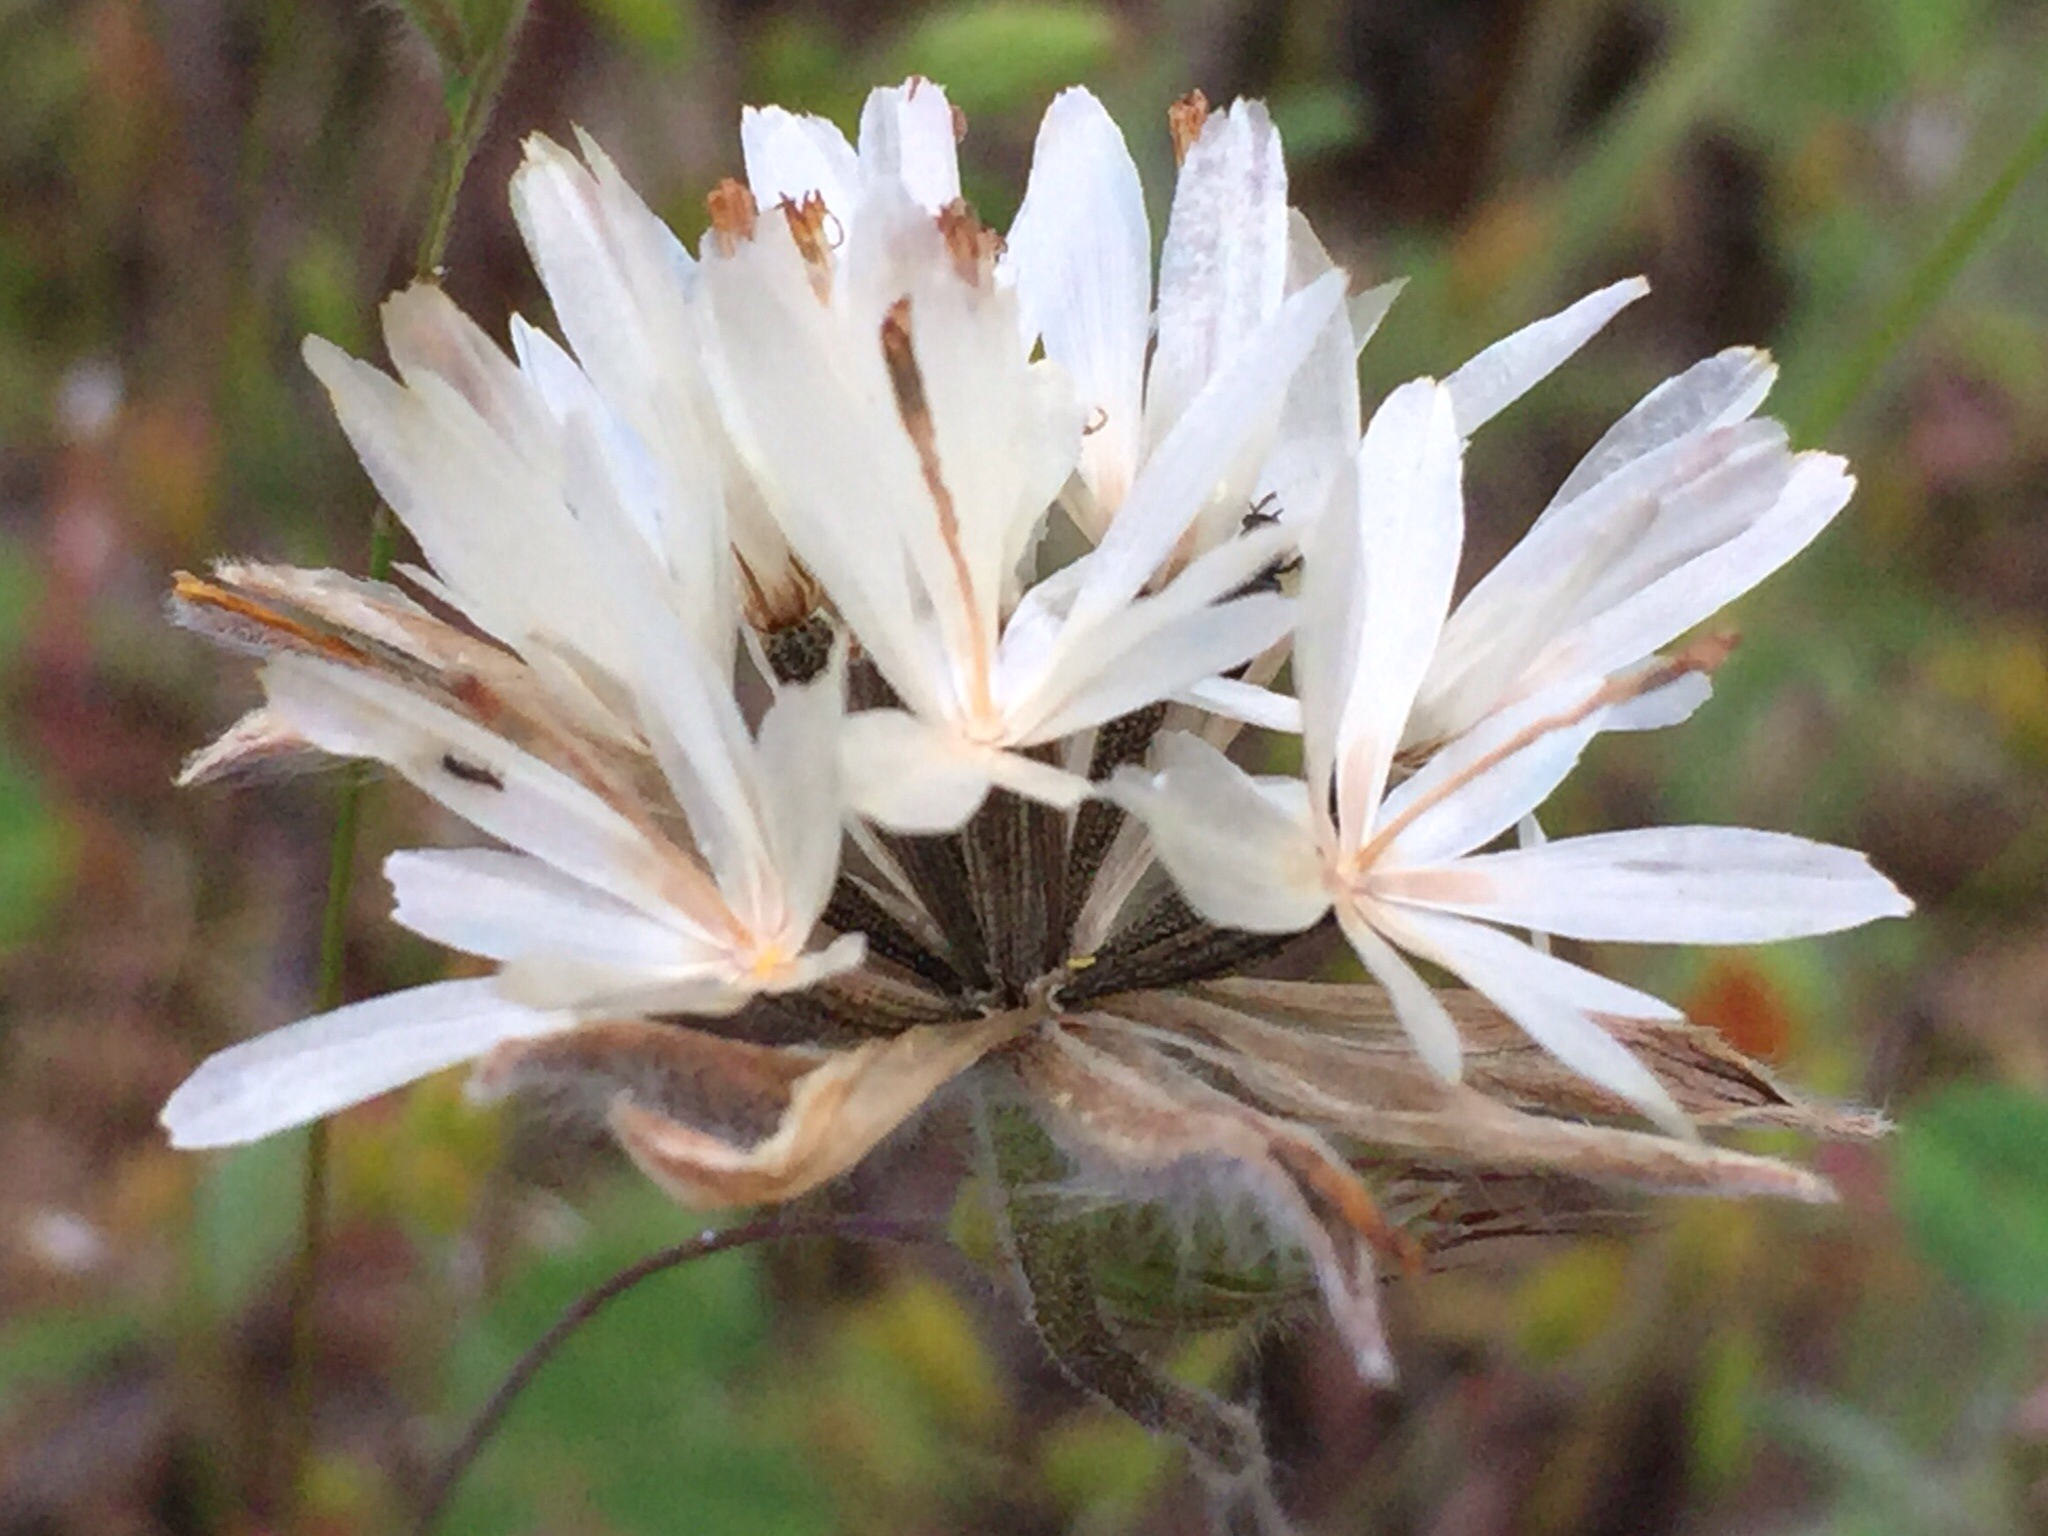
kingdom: Plantae
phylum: Tracheophyta
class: Magnoliopsida
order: Asterales
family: Asteraceae
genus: Achyrachaena
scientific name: Achyrachaena mollis
